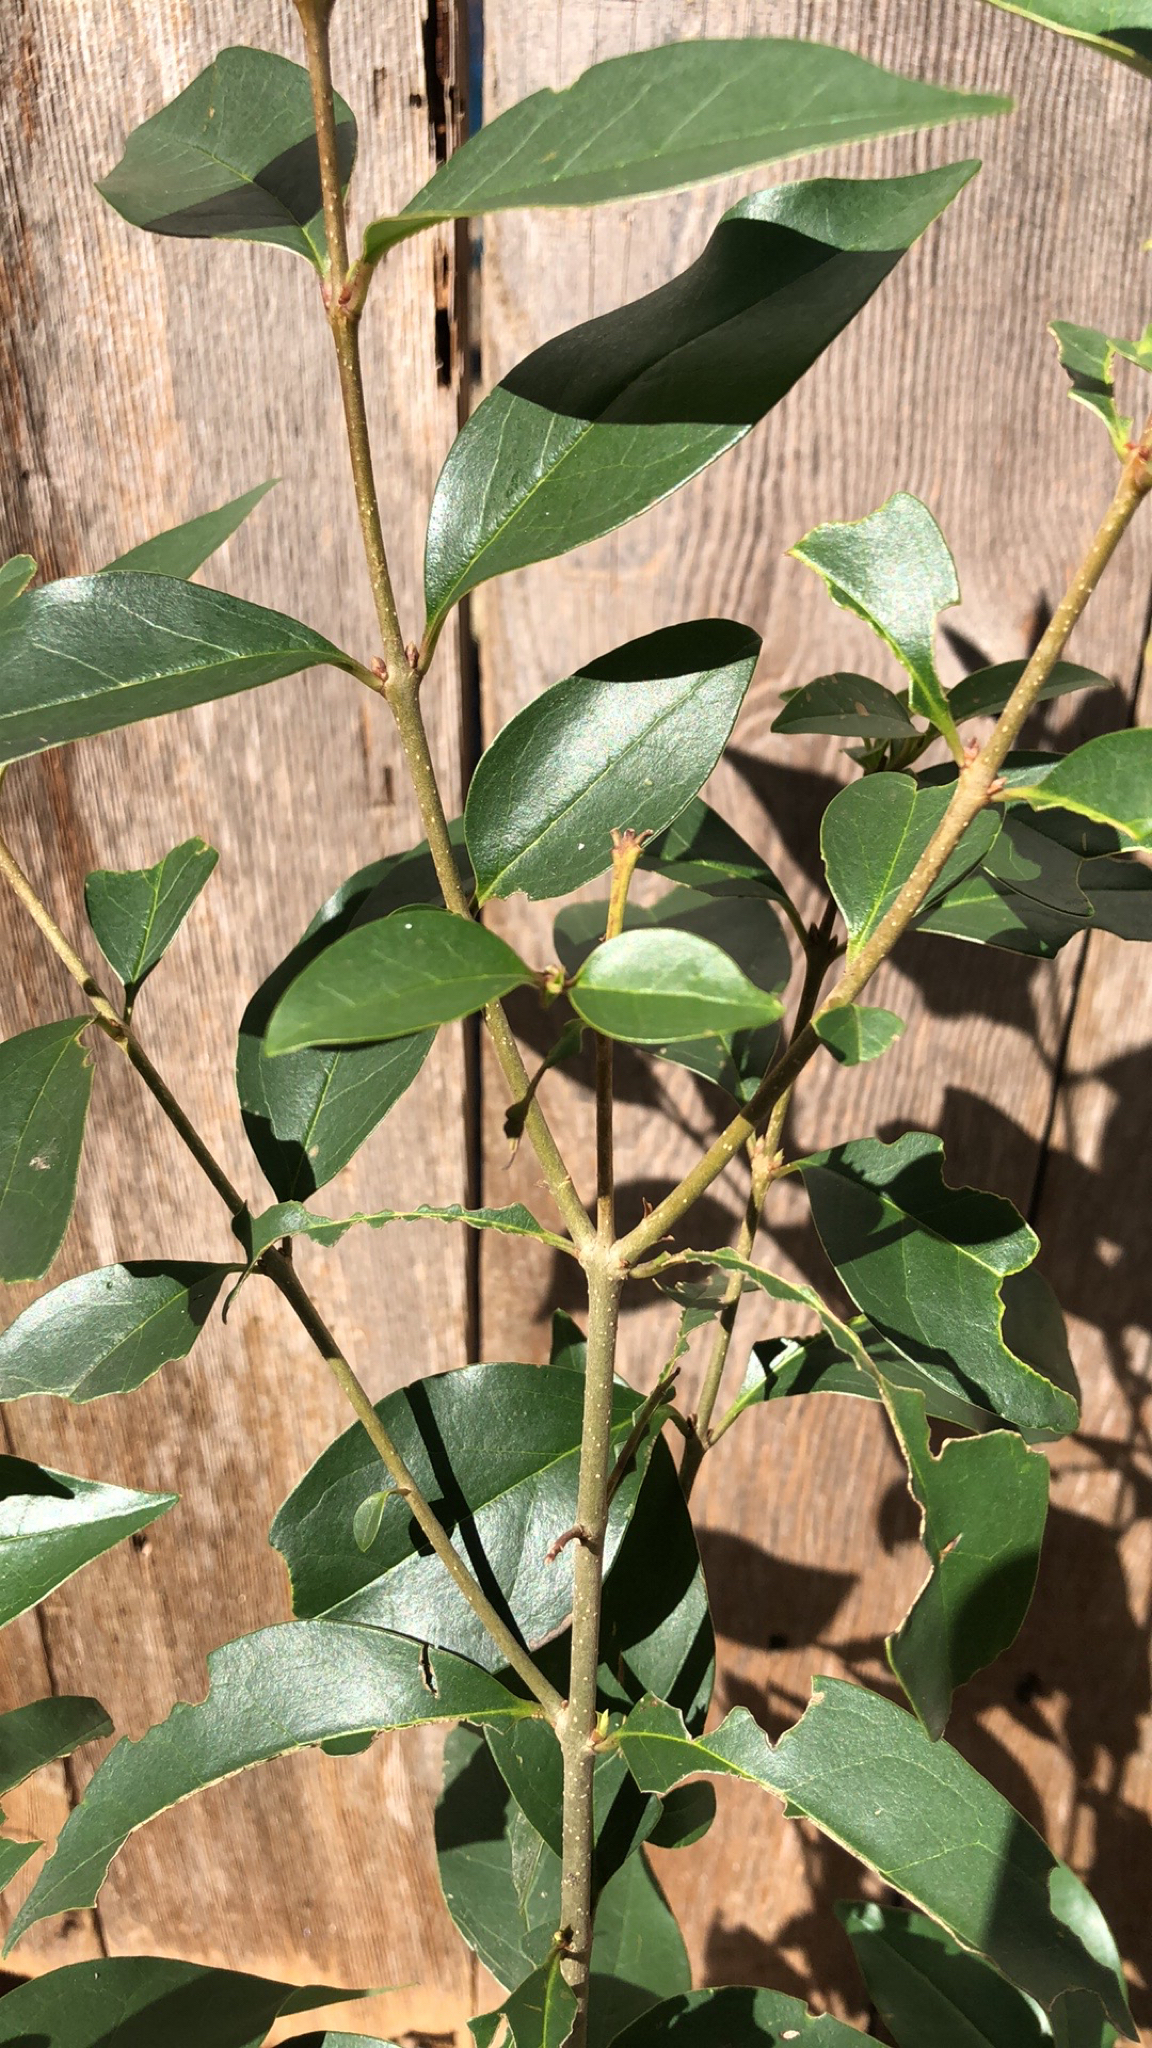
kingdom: Plantae
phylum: Tracheophyta
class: Magnoliopsida
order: Lamiales
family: Oleaceae
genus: Ligustrum
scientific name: Ligustrum lucidum
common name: Glossy privet
